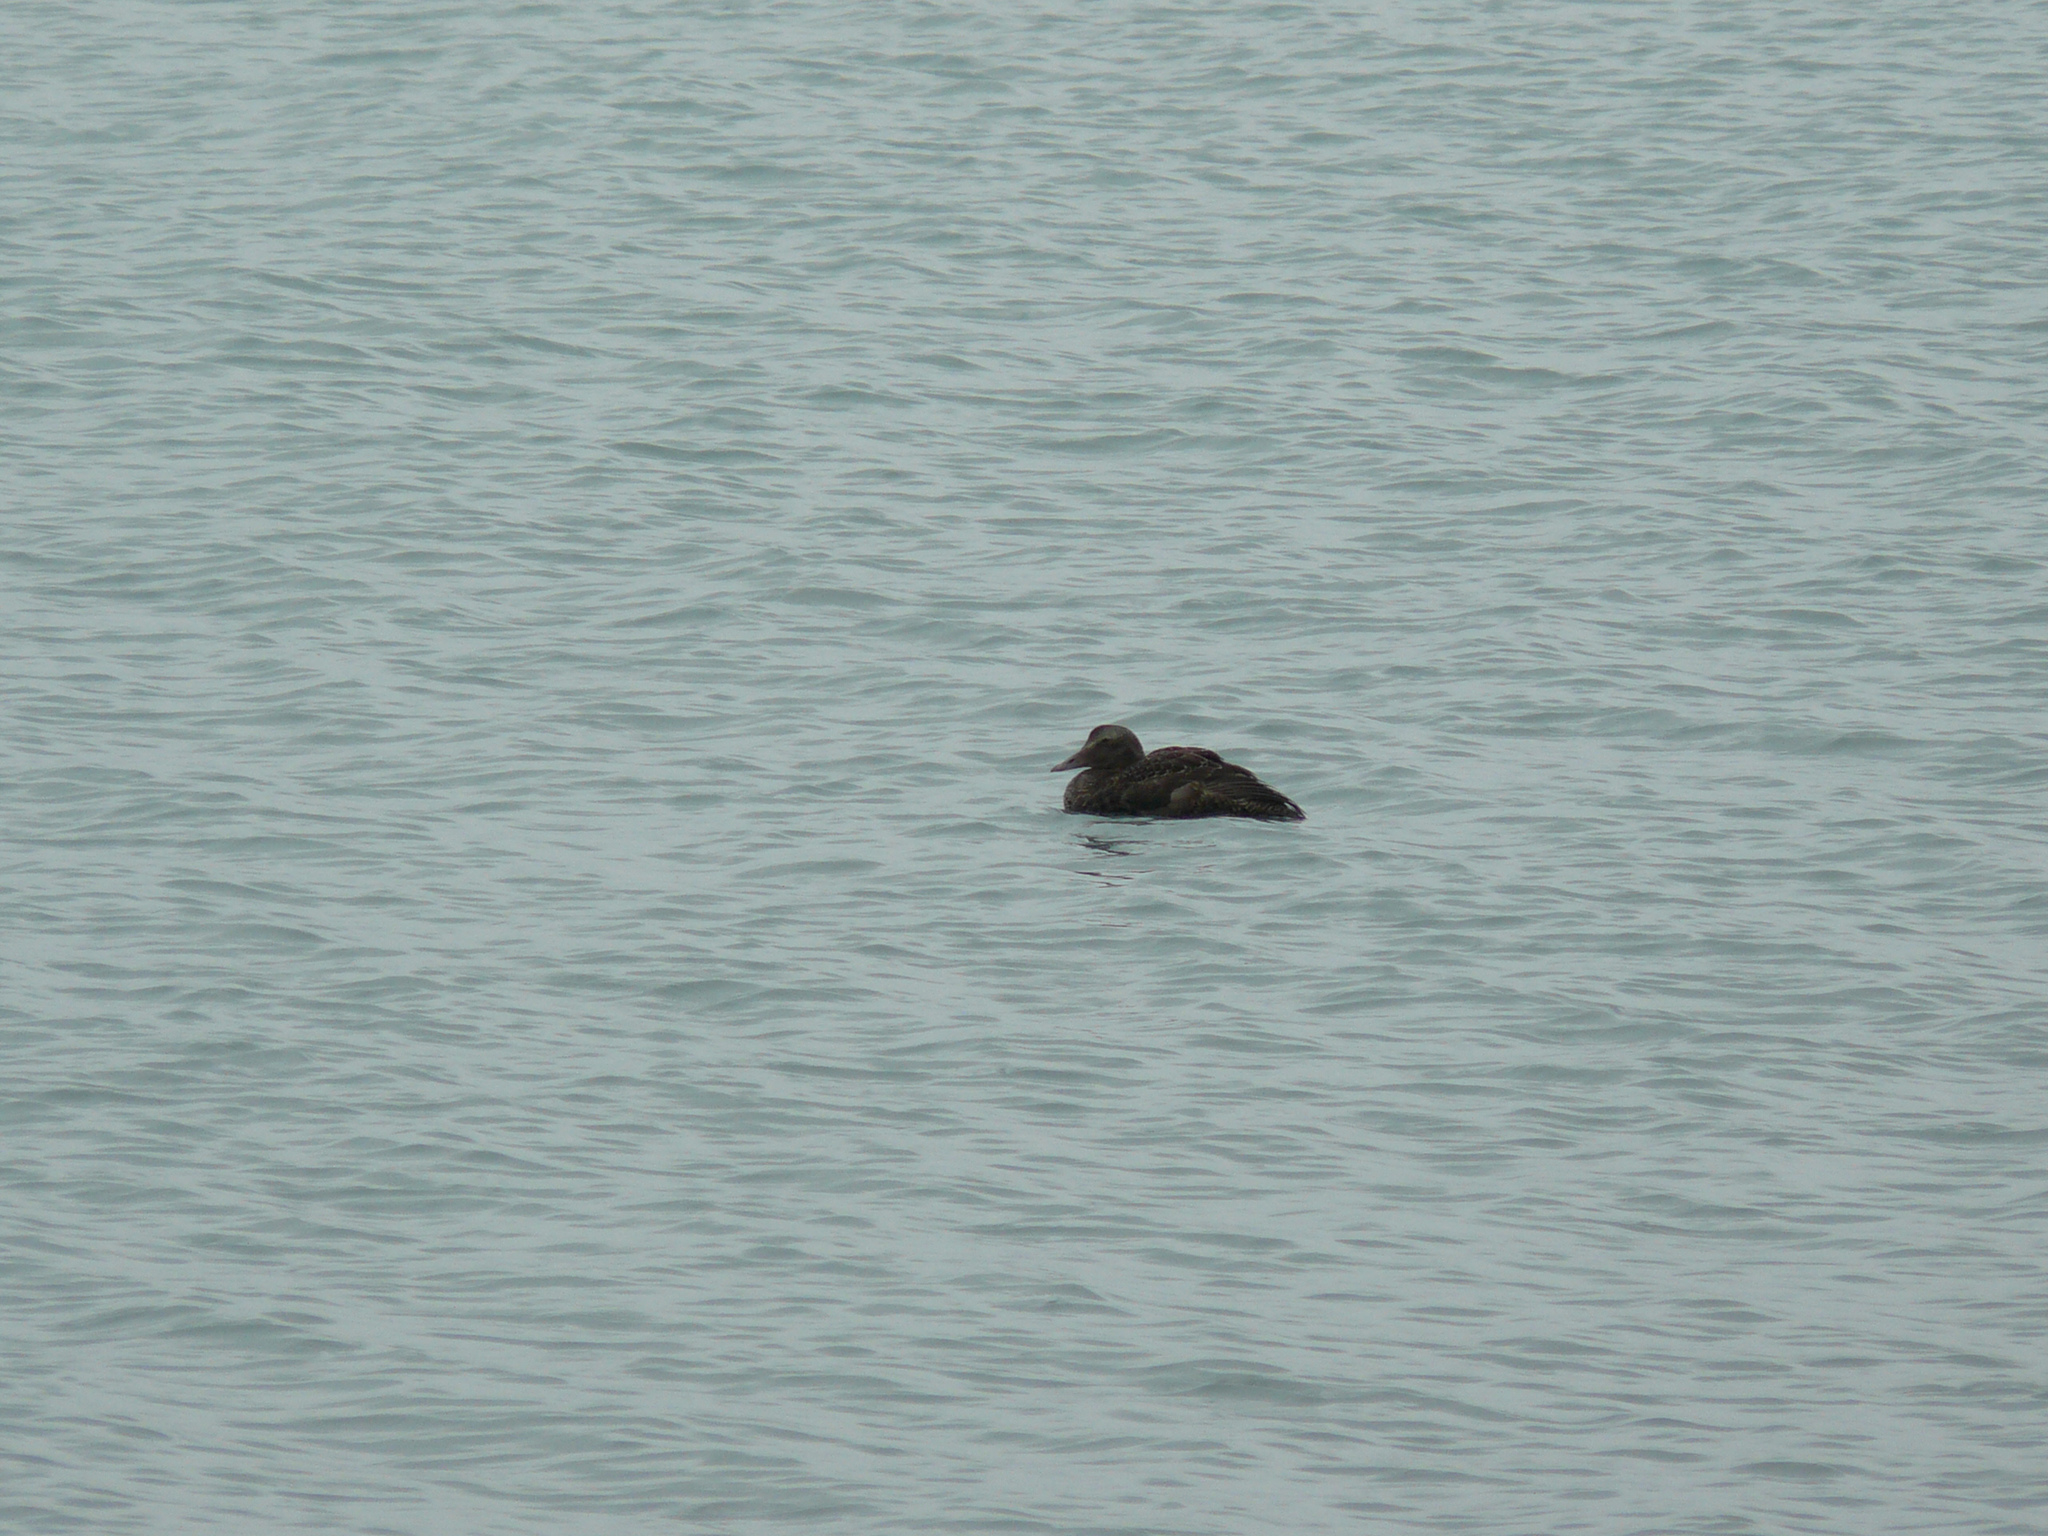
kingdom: Animalia
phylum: Chordata
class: Aves
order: Anseriformes
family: Anatidae
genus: Somateria
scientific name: Somateria mollissima
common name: Common eider
